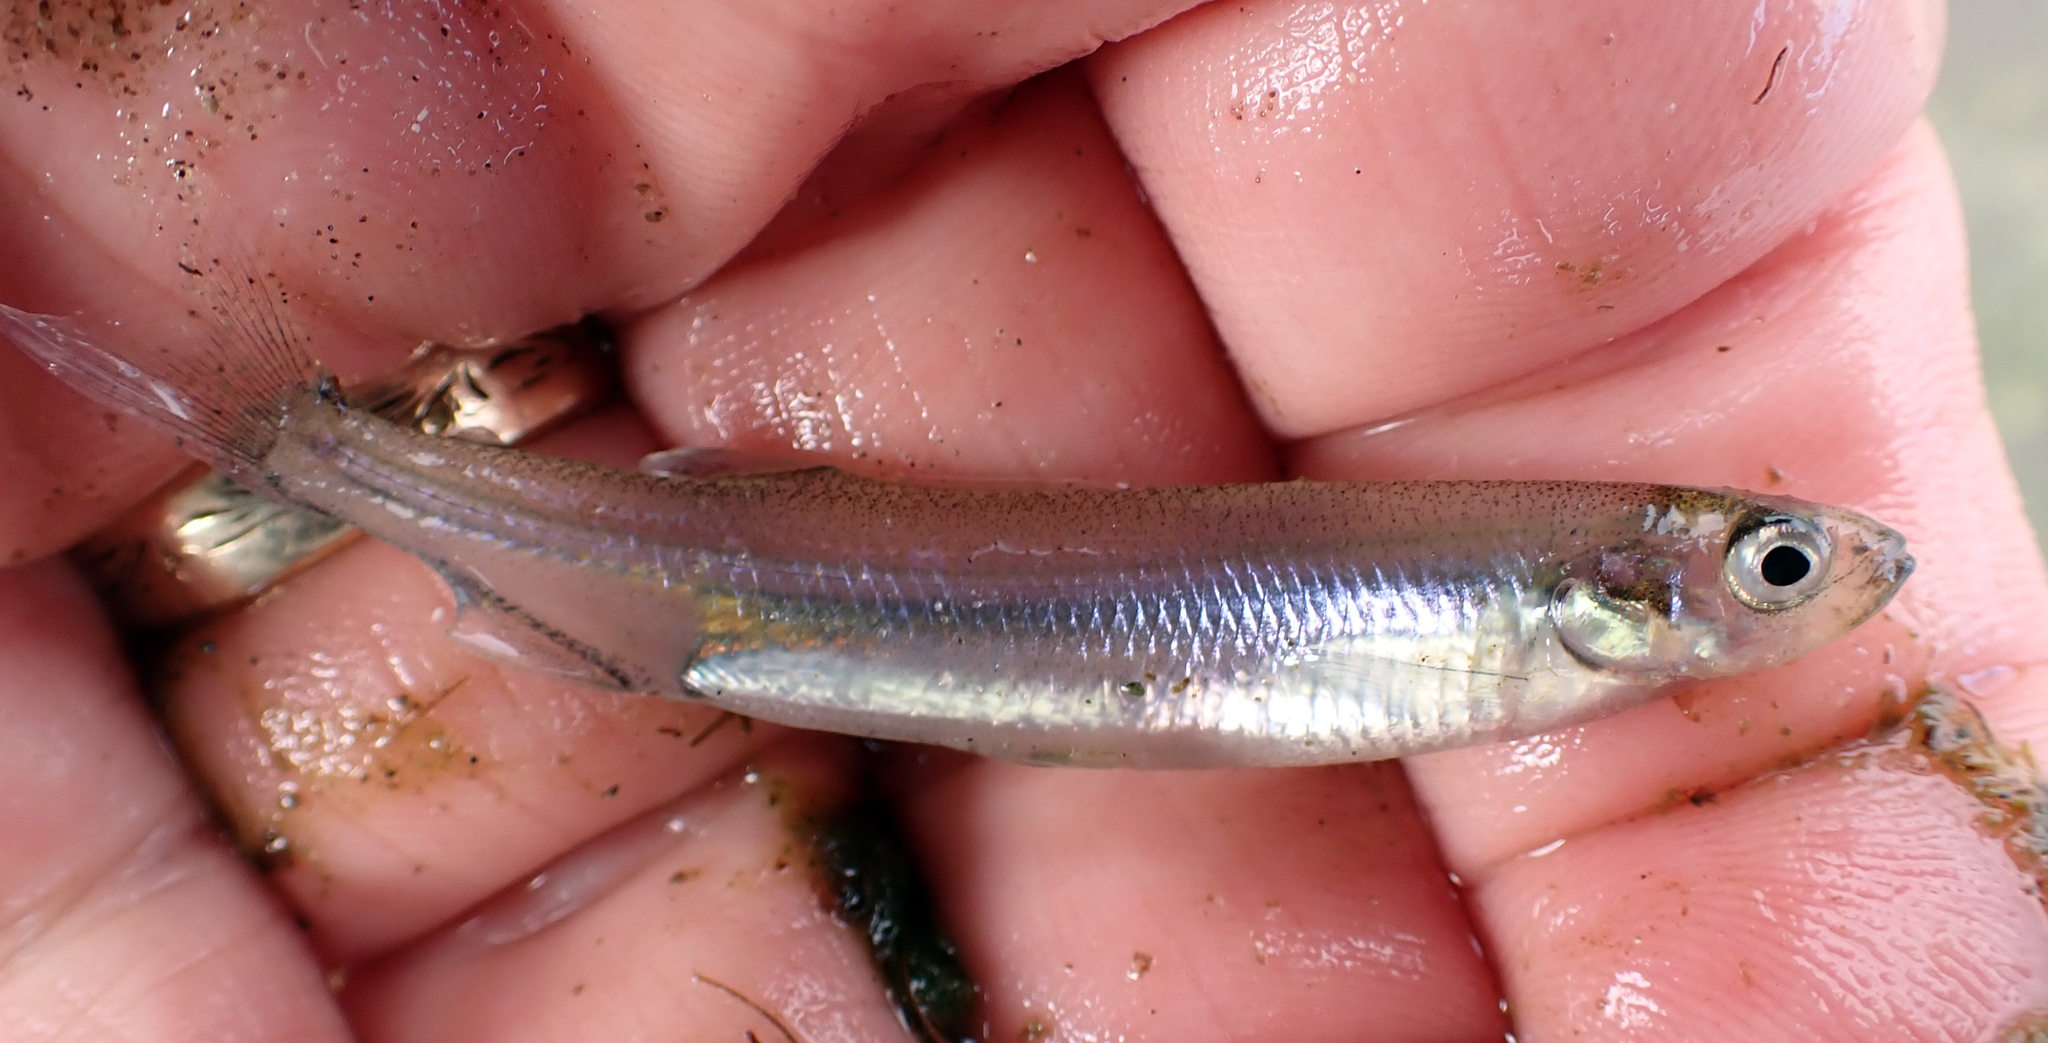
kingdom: Animalia
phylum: Chordata
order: Osmeriformes
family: Retropinnidae
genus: Retropinna
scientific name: Retropinna retropinna
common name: Common smelt
